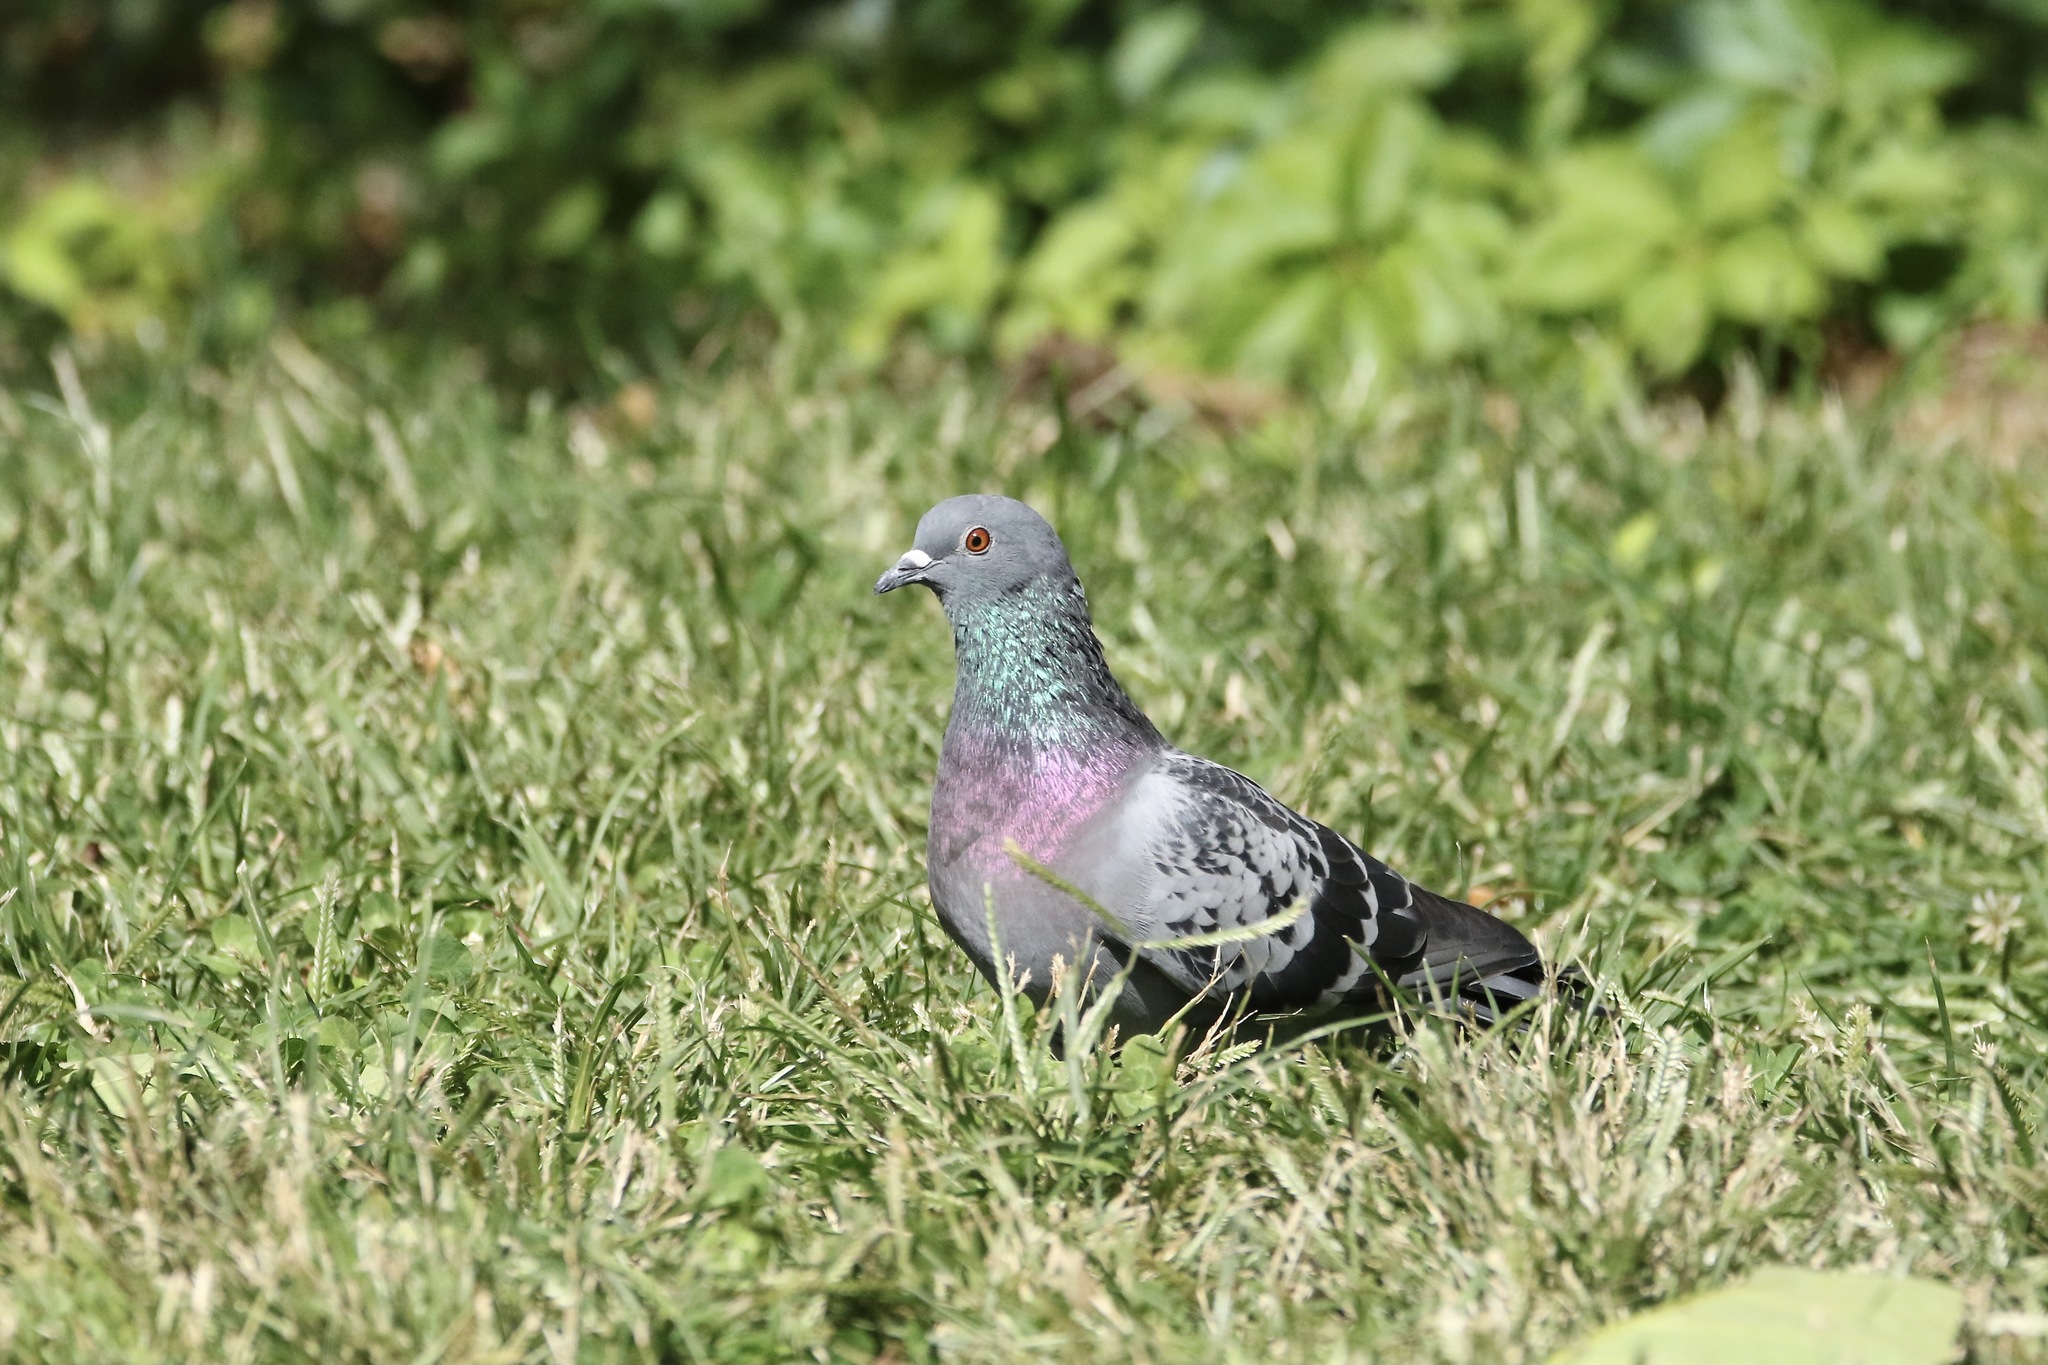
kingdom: Animalia
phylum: Chordata
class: Aves
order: Columbiformes
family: Columbidae
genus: Columba
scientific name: Columba livia
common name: Rock pigeon
